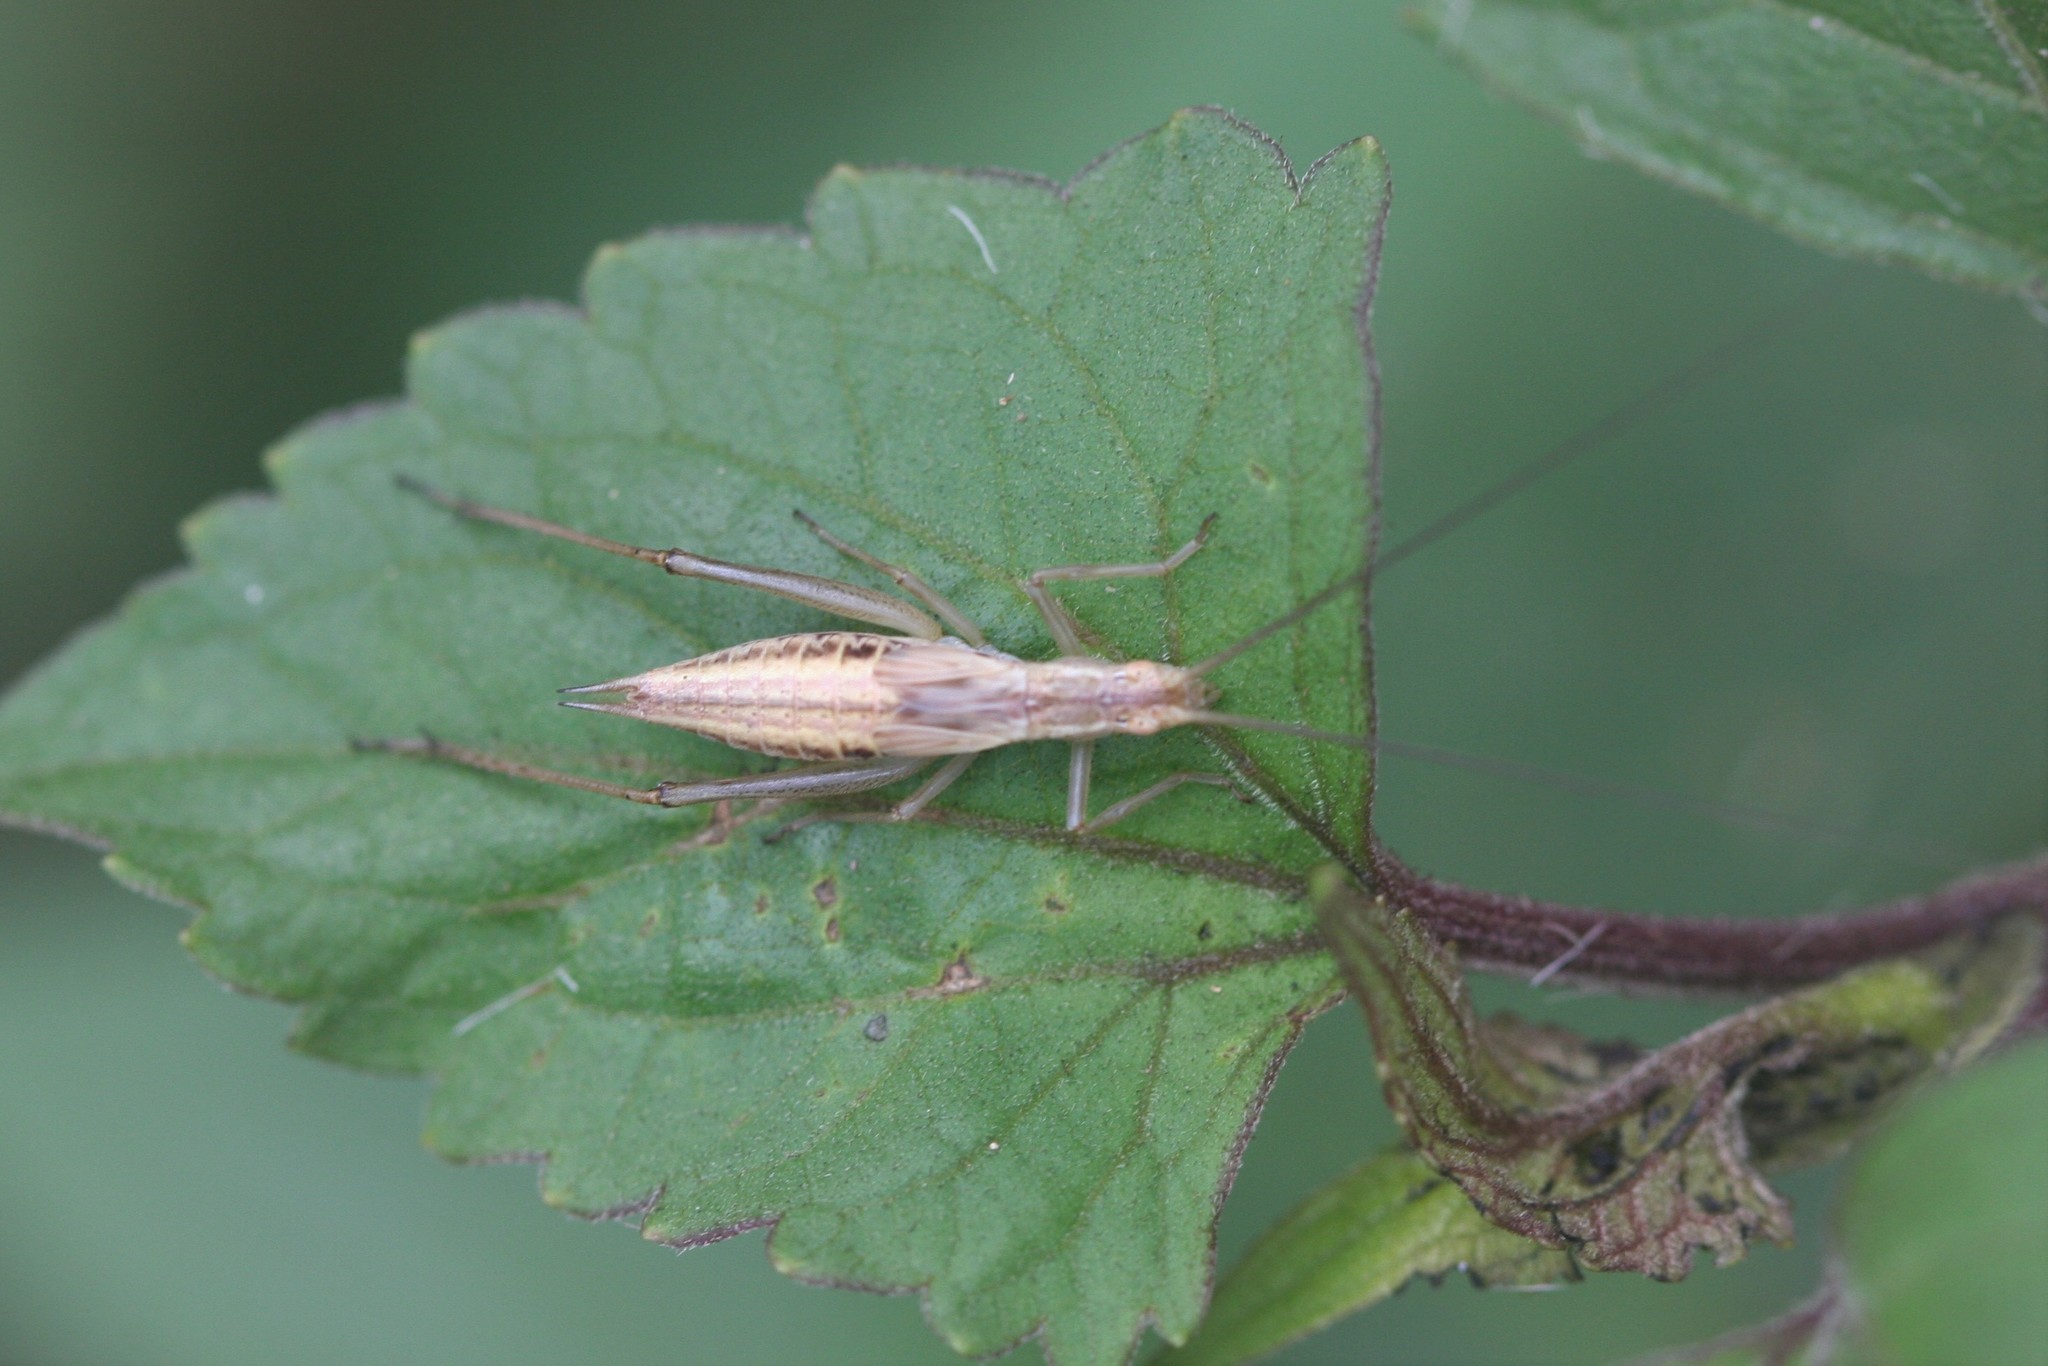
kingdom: Animalia
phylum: Arthropoda
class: Insecta
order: Orthoptera
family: Gryllidae
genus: Oecanthus
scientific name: Oecanthus pellucens
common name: Tree-cricket
